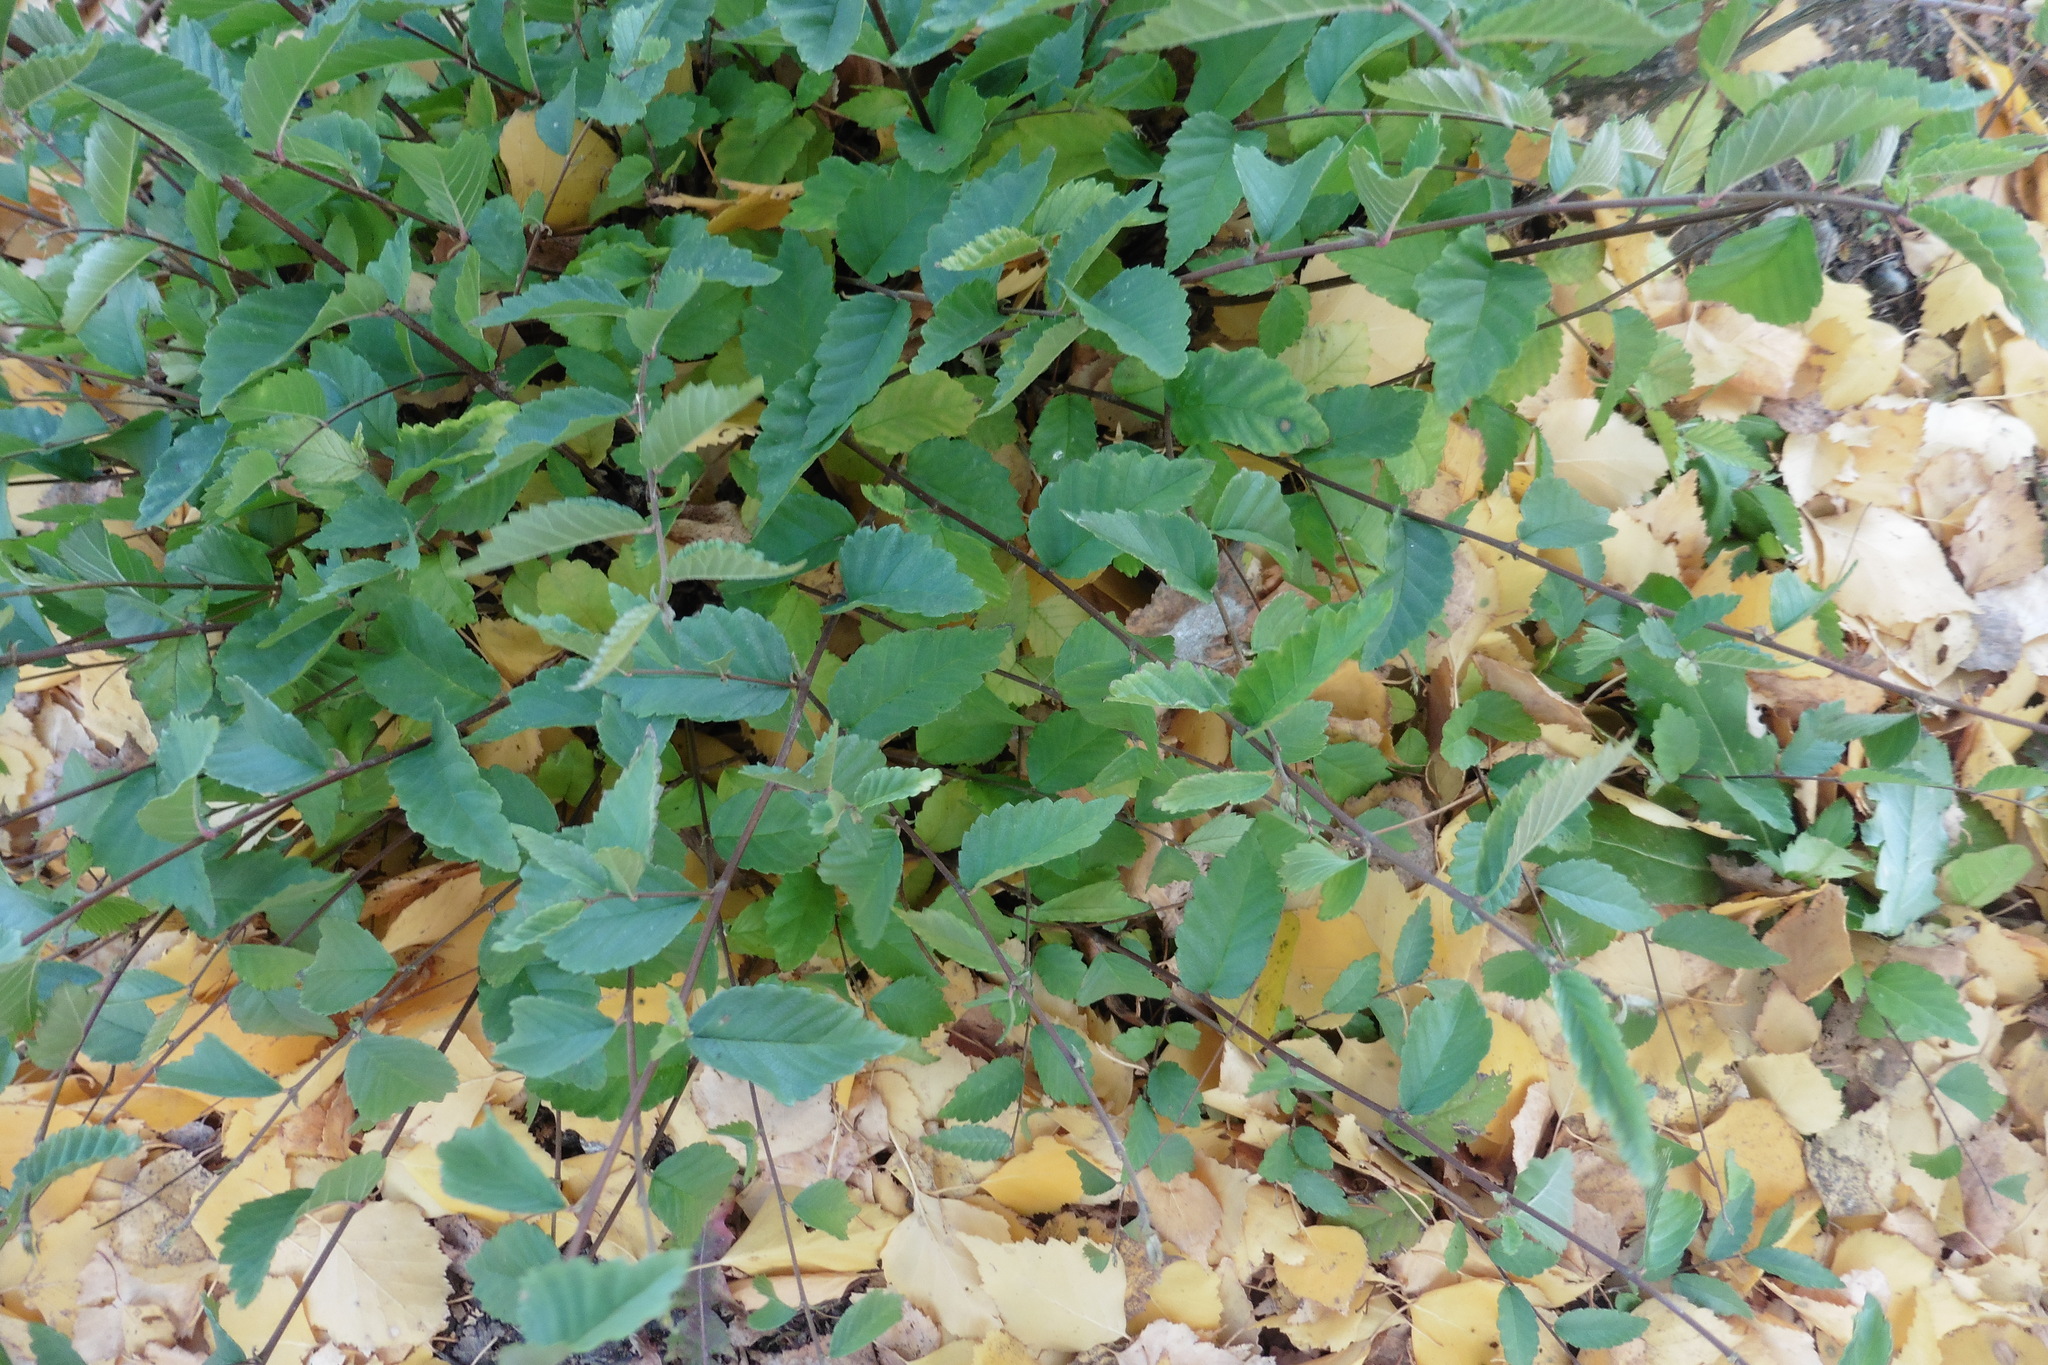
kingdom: Plantae
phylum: Tracheophyta
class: Magnoliopsida
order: Rosales
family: Ulmaceae
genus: Ulmus
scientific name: Ulmus pumila
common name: Siberian elm
